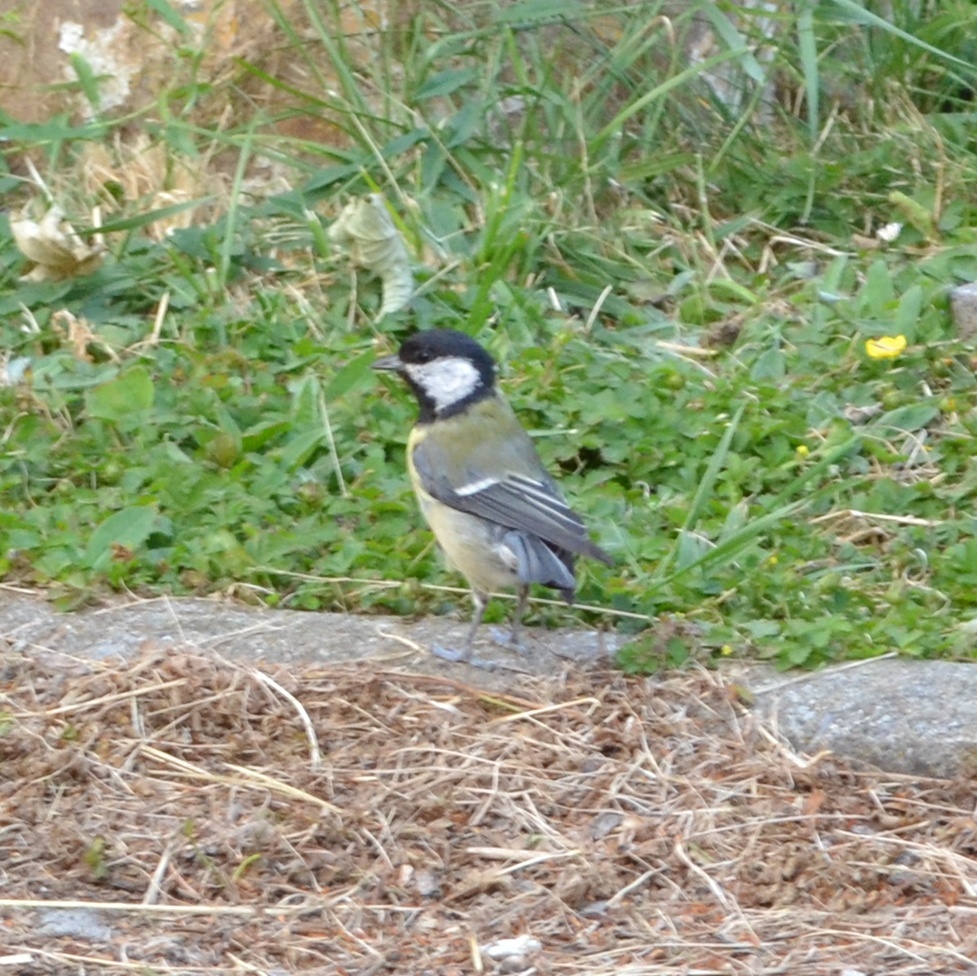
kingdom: Animalia
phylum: Chordata
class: Aves
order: Passeriformes
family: Paridae
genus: Parus
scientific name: Parus major
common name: Great tit
